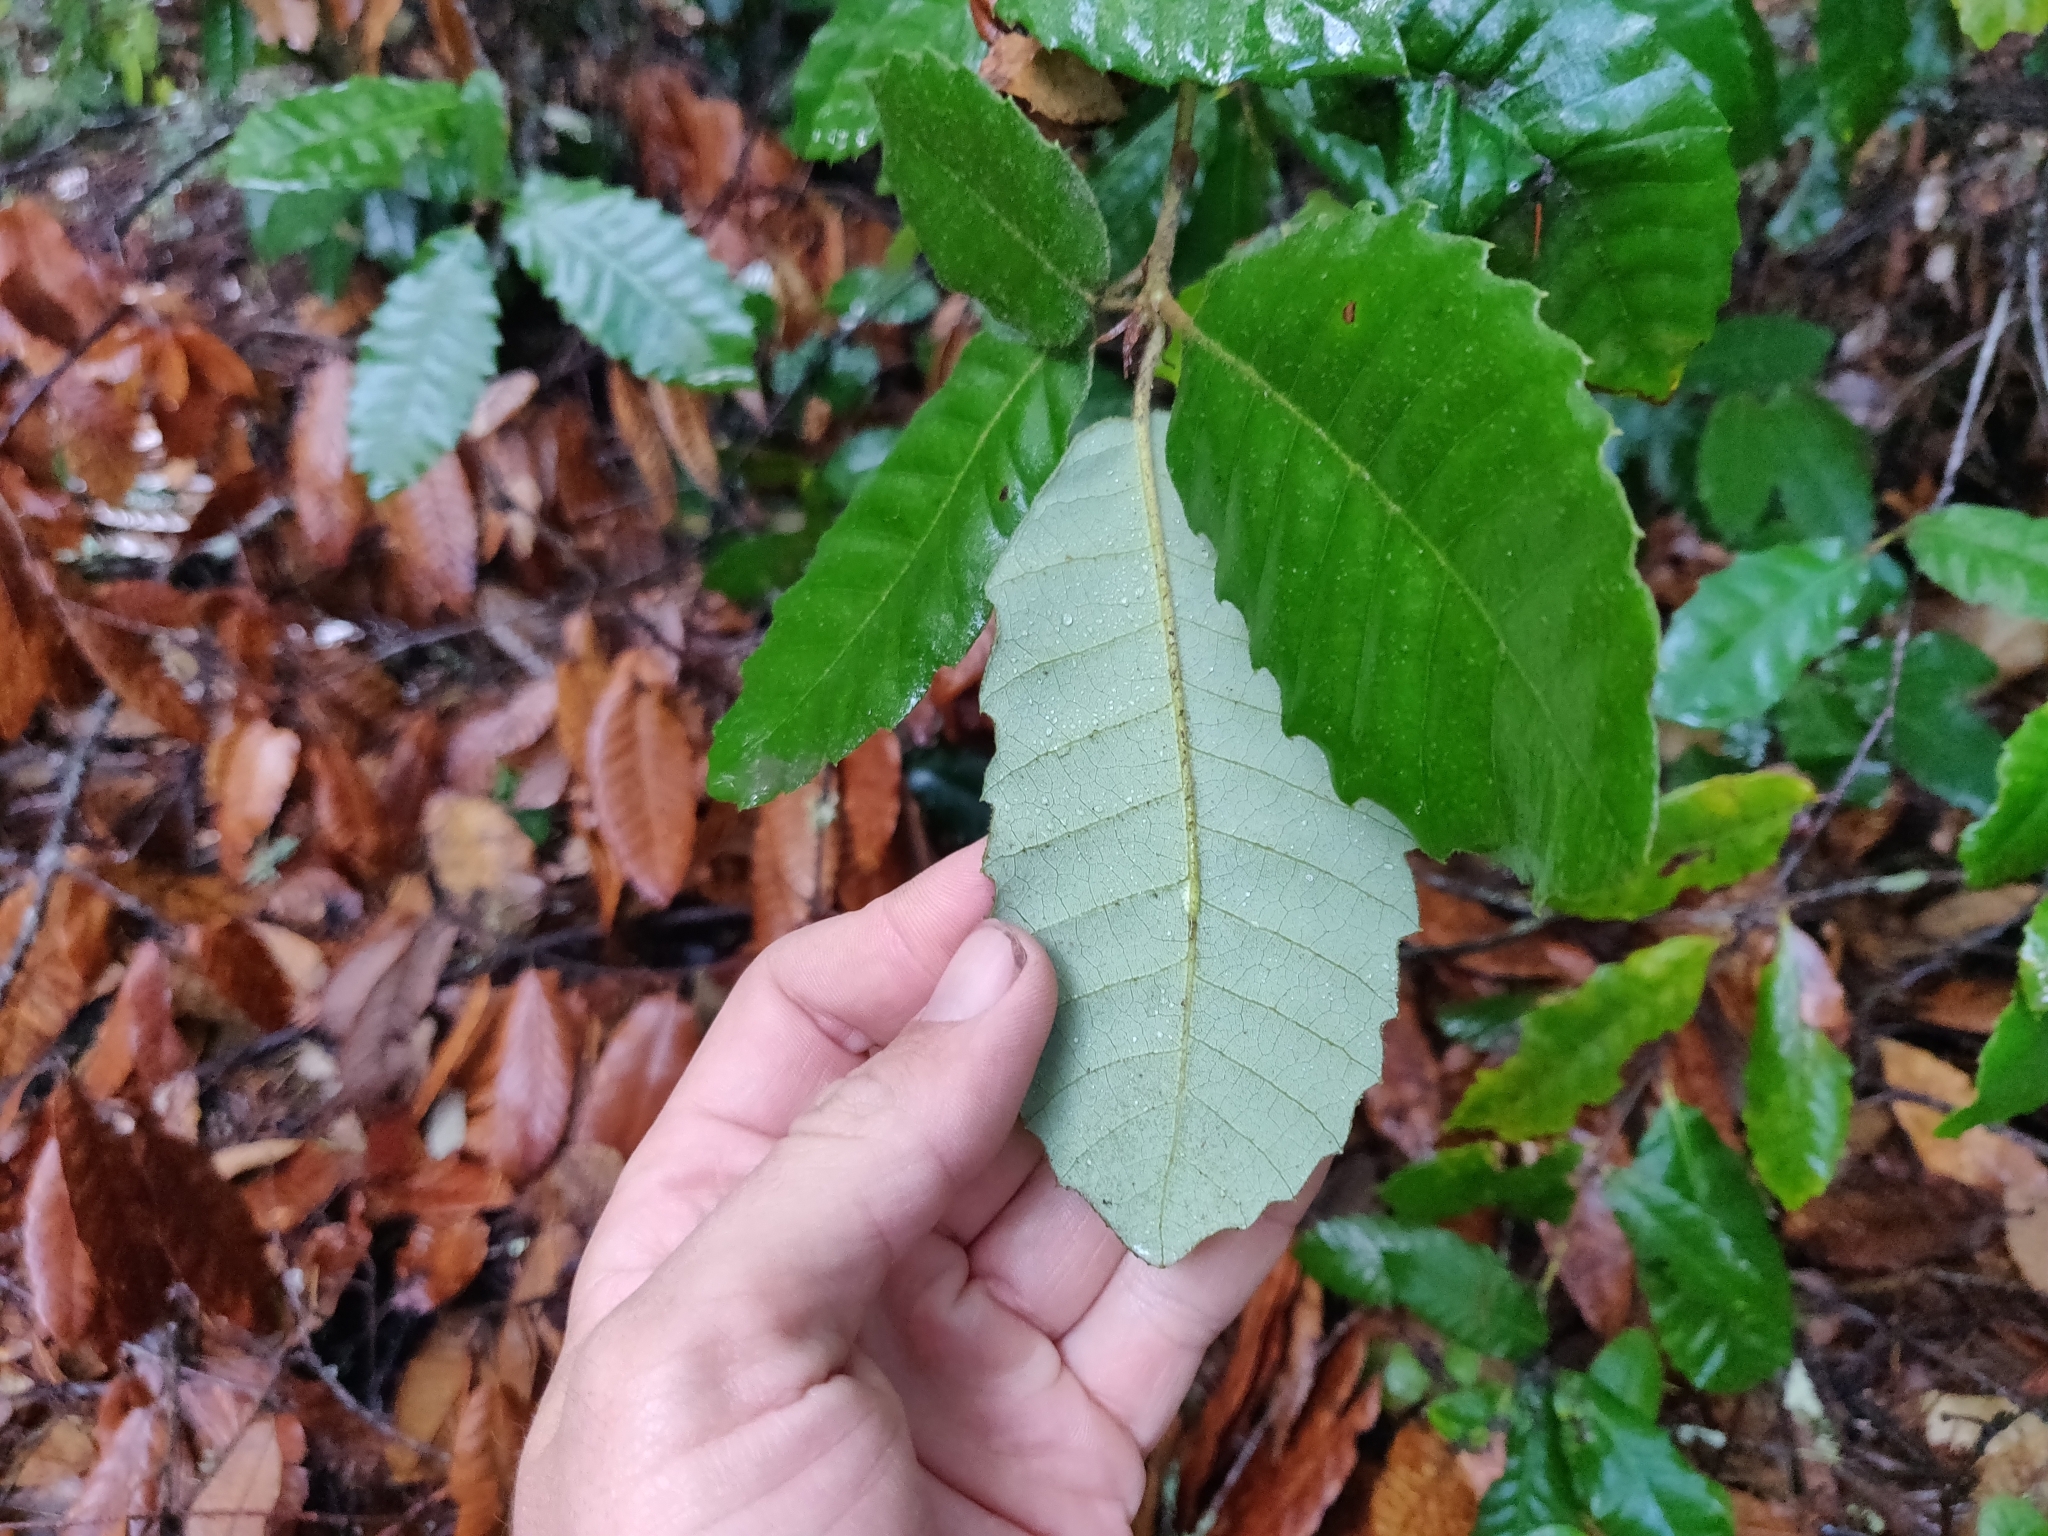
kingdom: Plantae
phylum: Tracheophyta
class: Magnoliopsida
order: Fagales
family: Fagaceae
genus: Notholithocarpus
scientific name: Notholithocarpus densiflorus
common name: Tan bark oak
